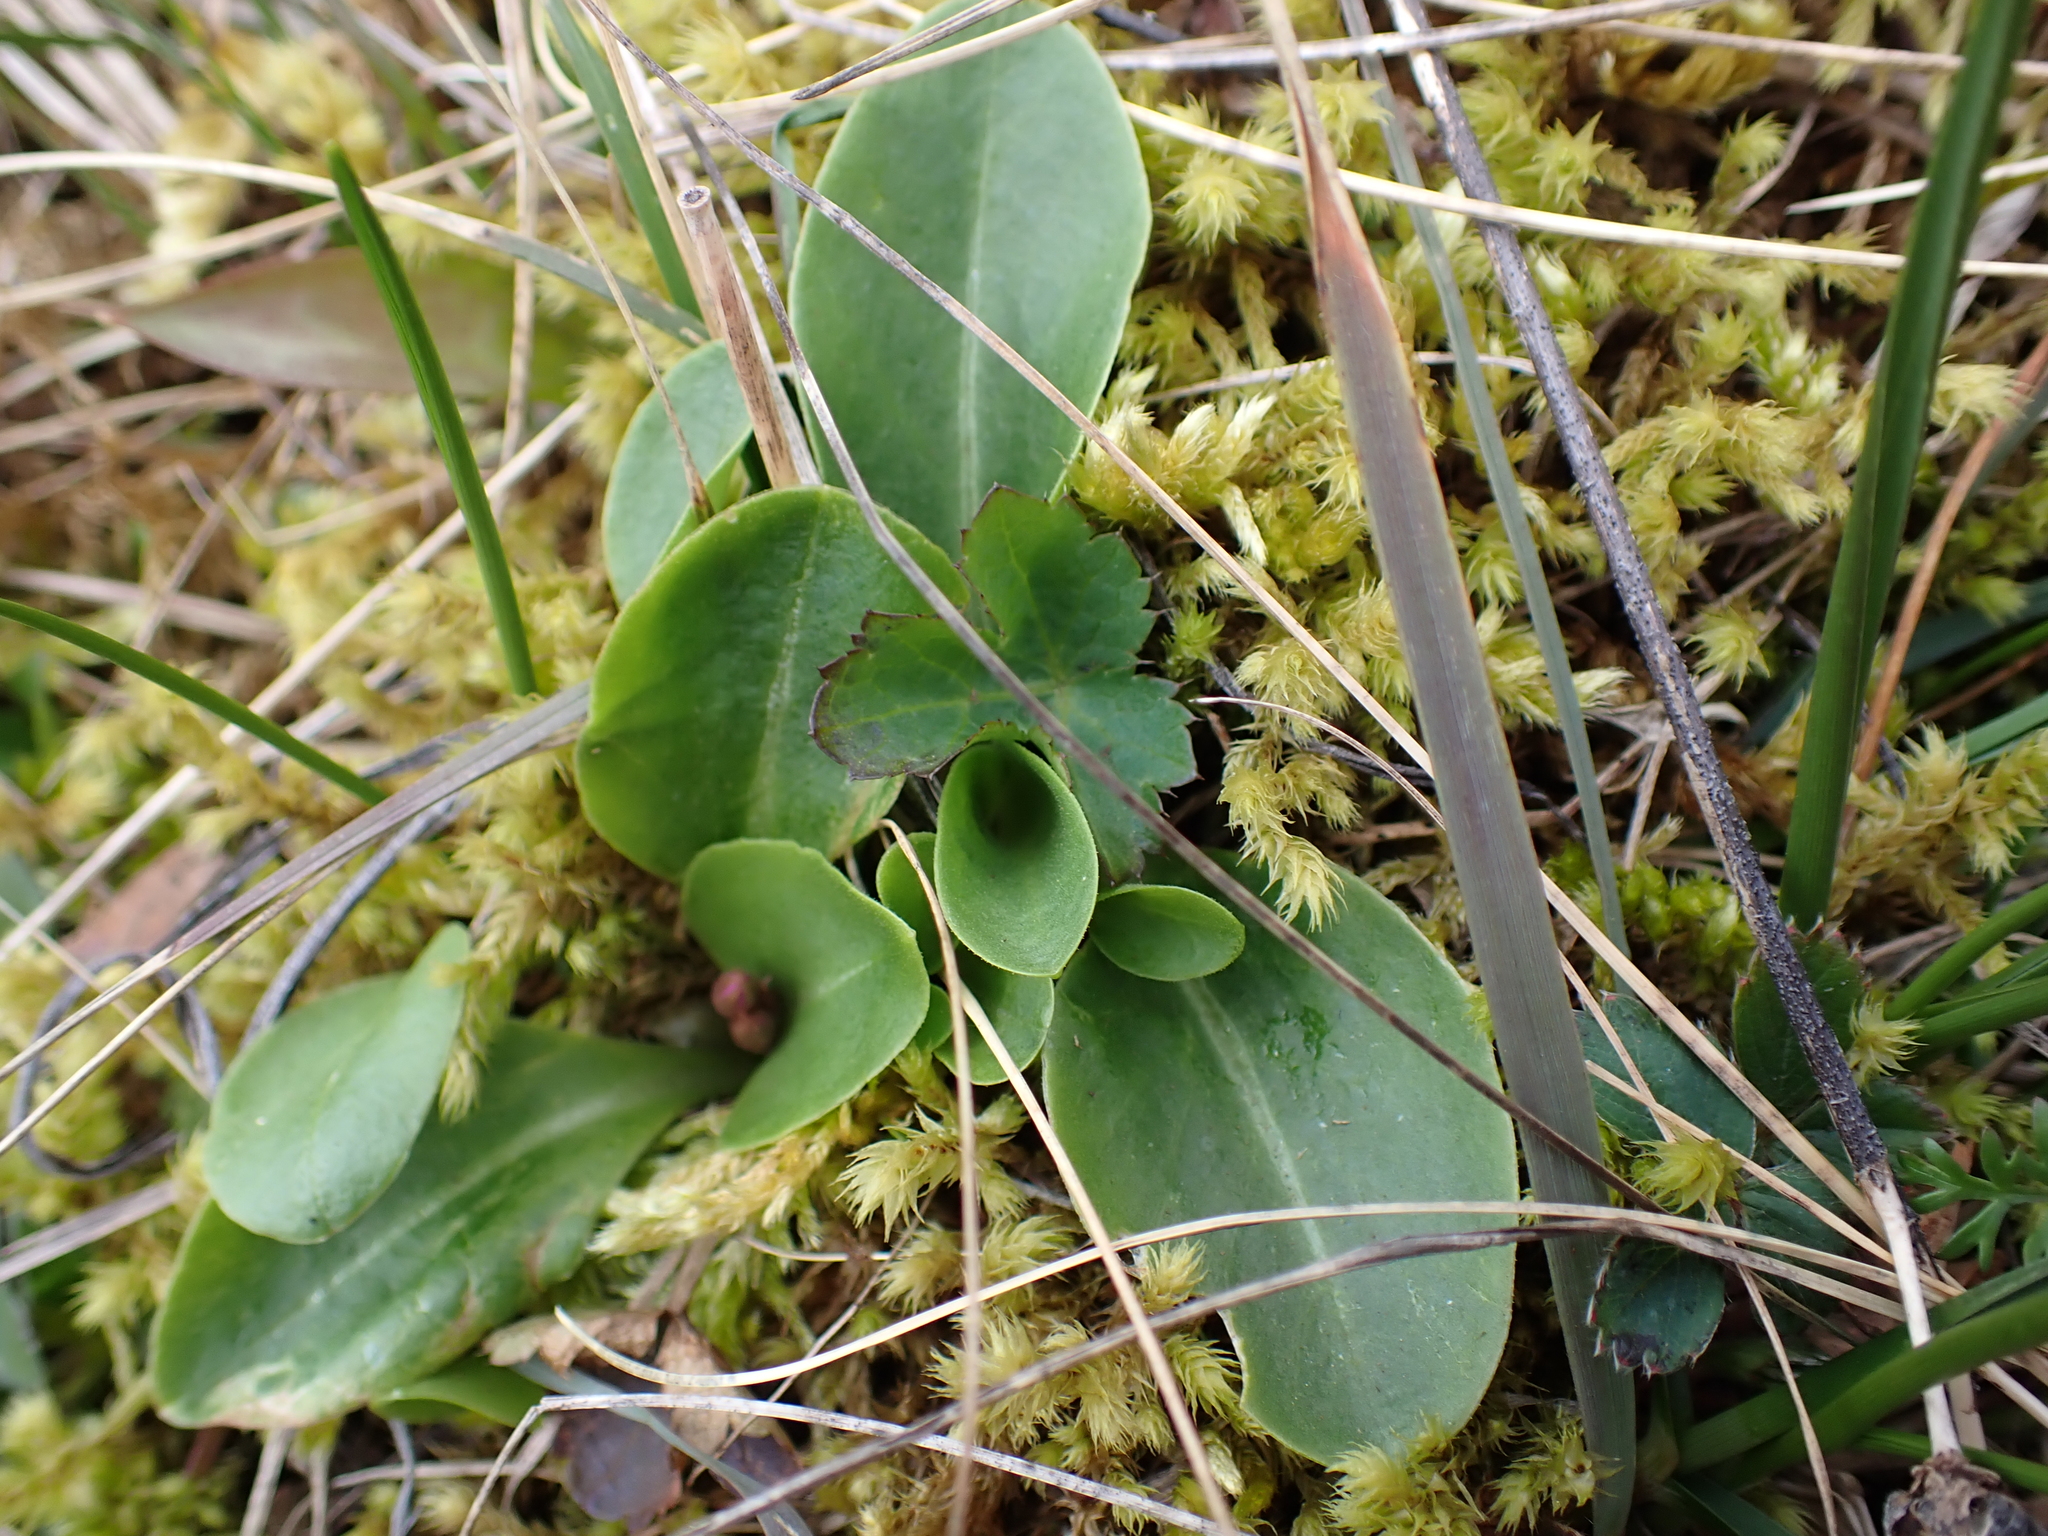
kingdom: Plantae
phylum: Tracheophyta
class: Magnoliopsida
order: Ericales
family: Primulaceae
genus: Dodecatheon
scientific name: Dodecatheon hendersonii
